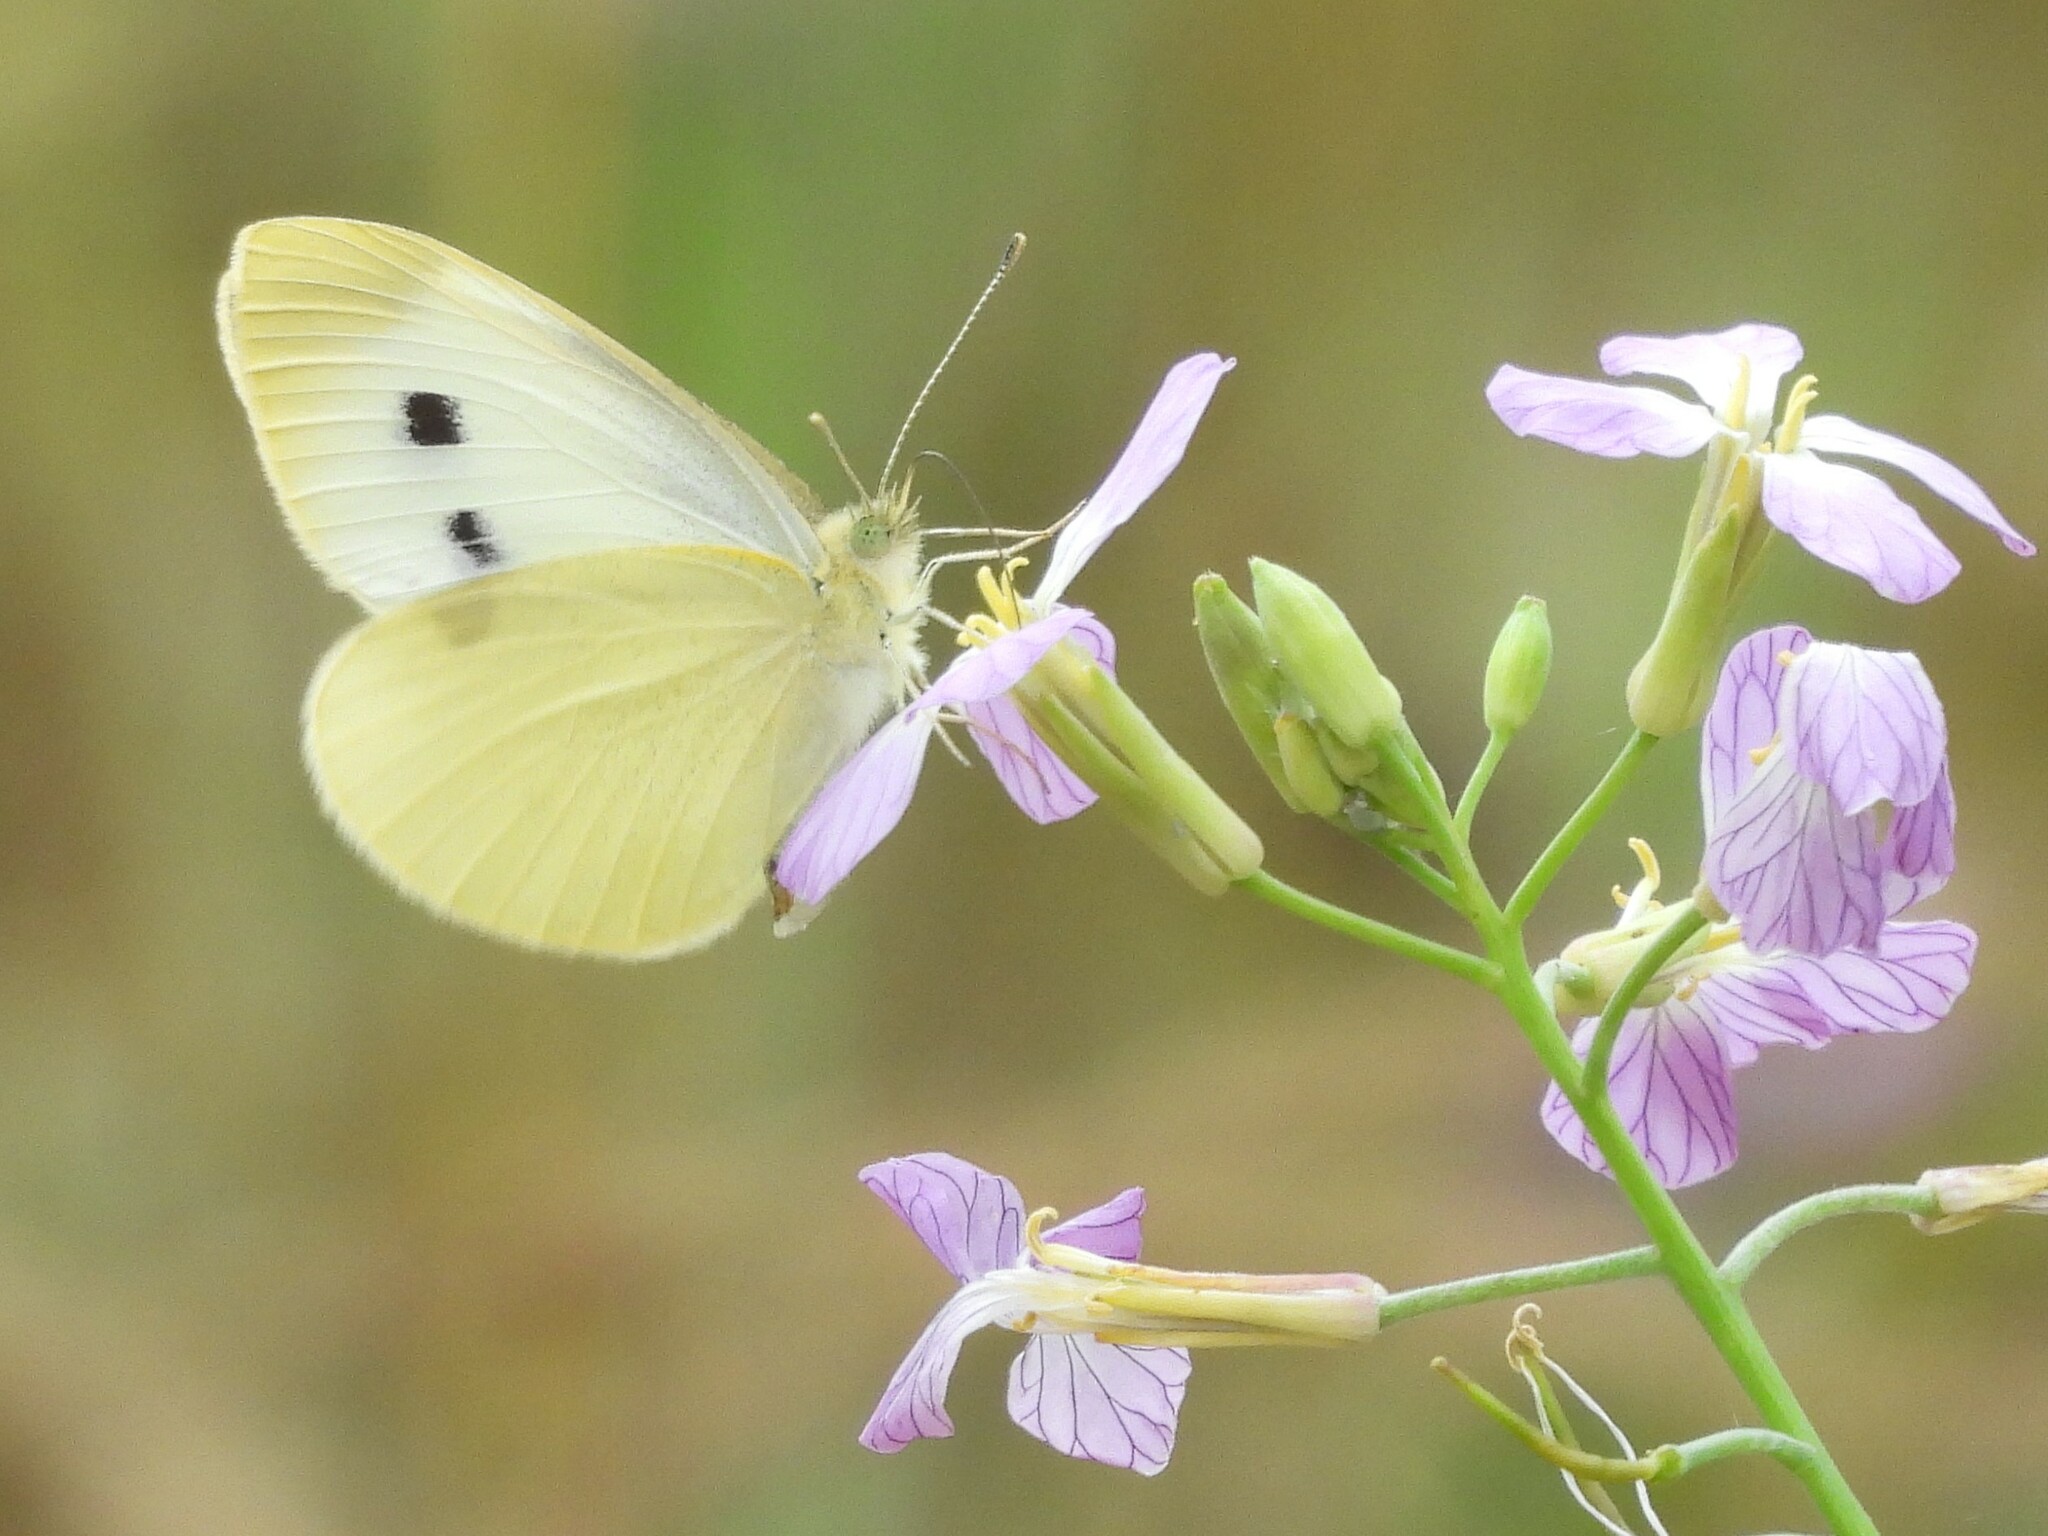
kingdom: Animalia
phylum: Arthropoda
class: Insecta
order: Lepidoptera
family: Pieridae
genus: Pieris
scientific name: Pieris rapae
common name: Small white
